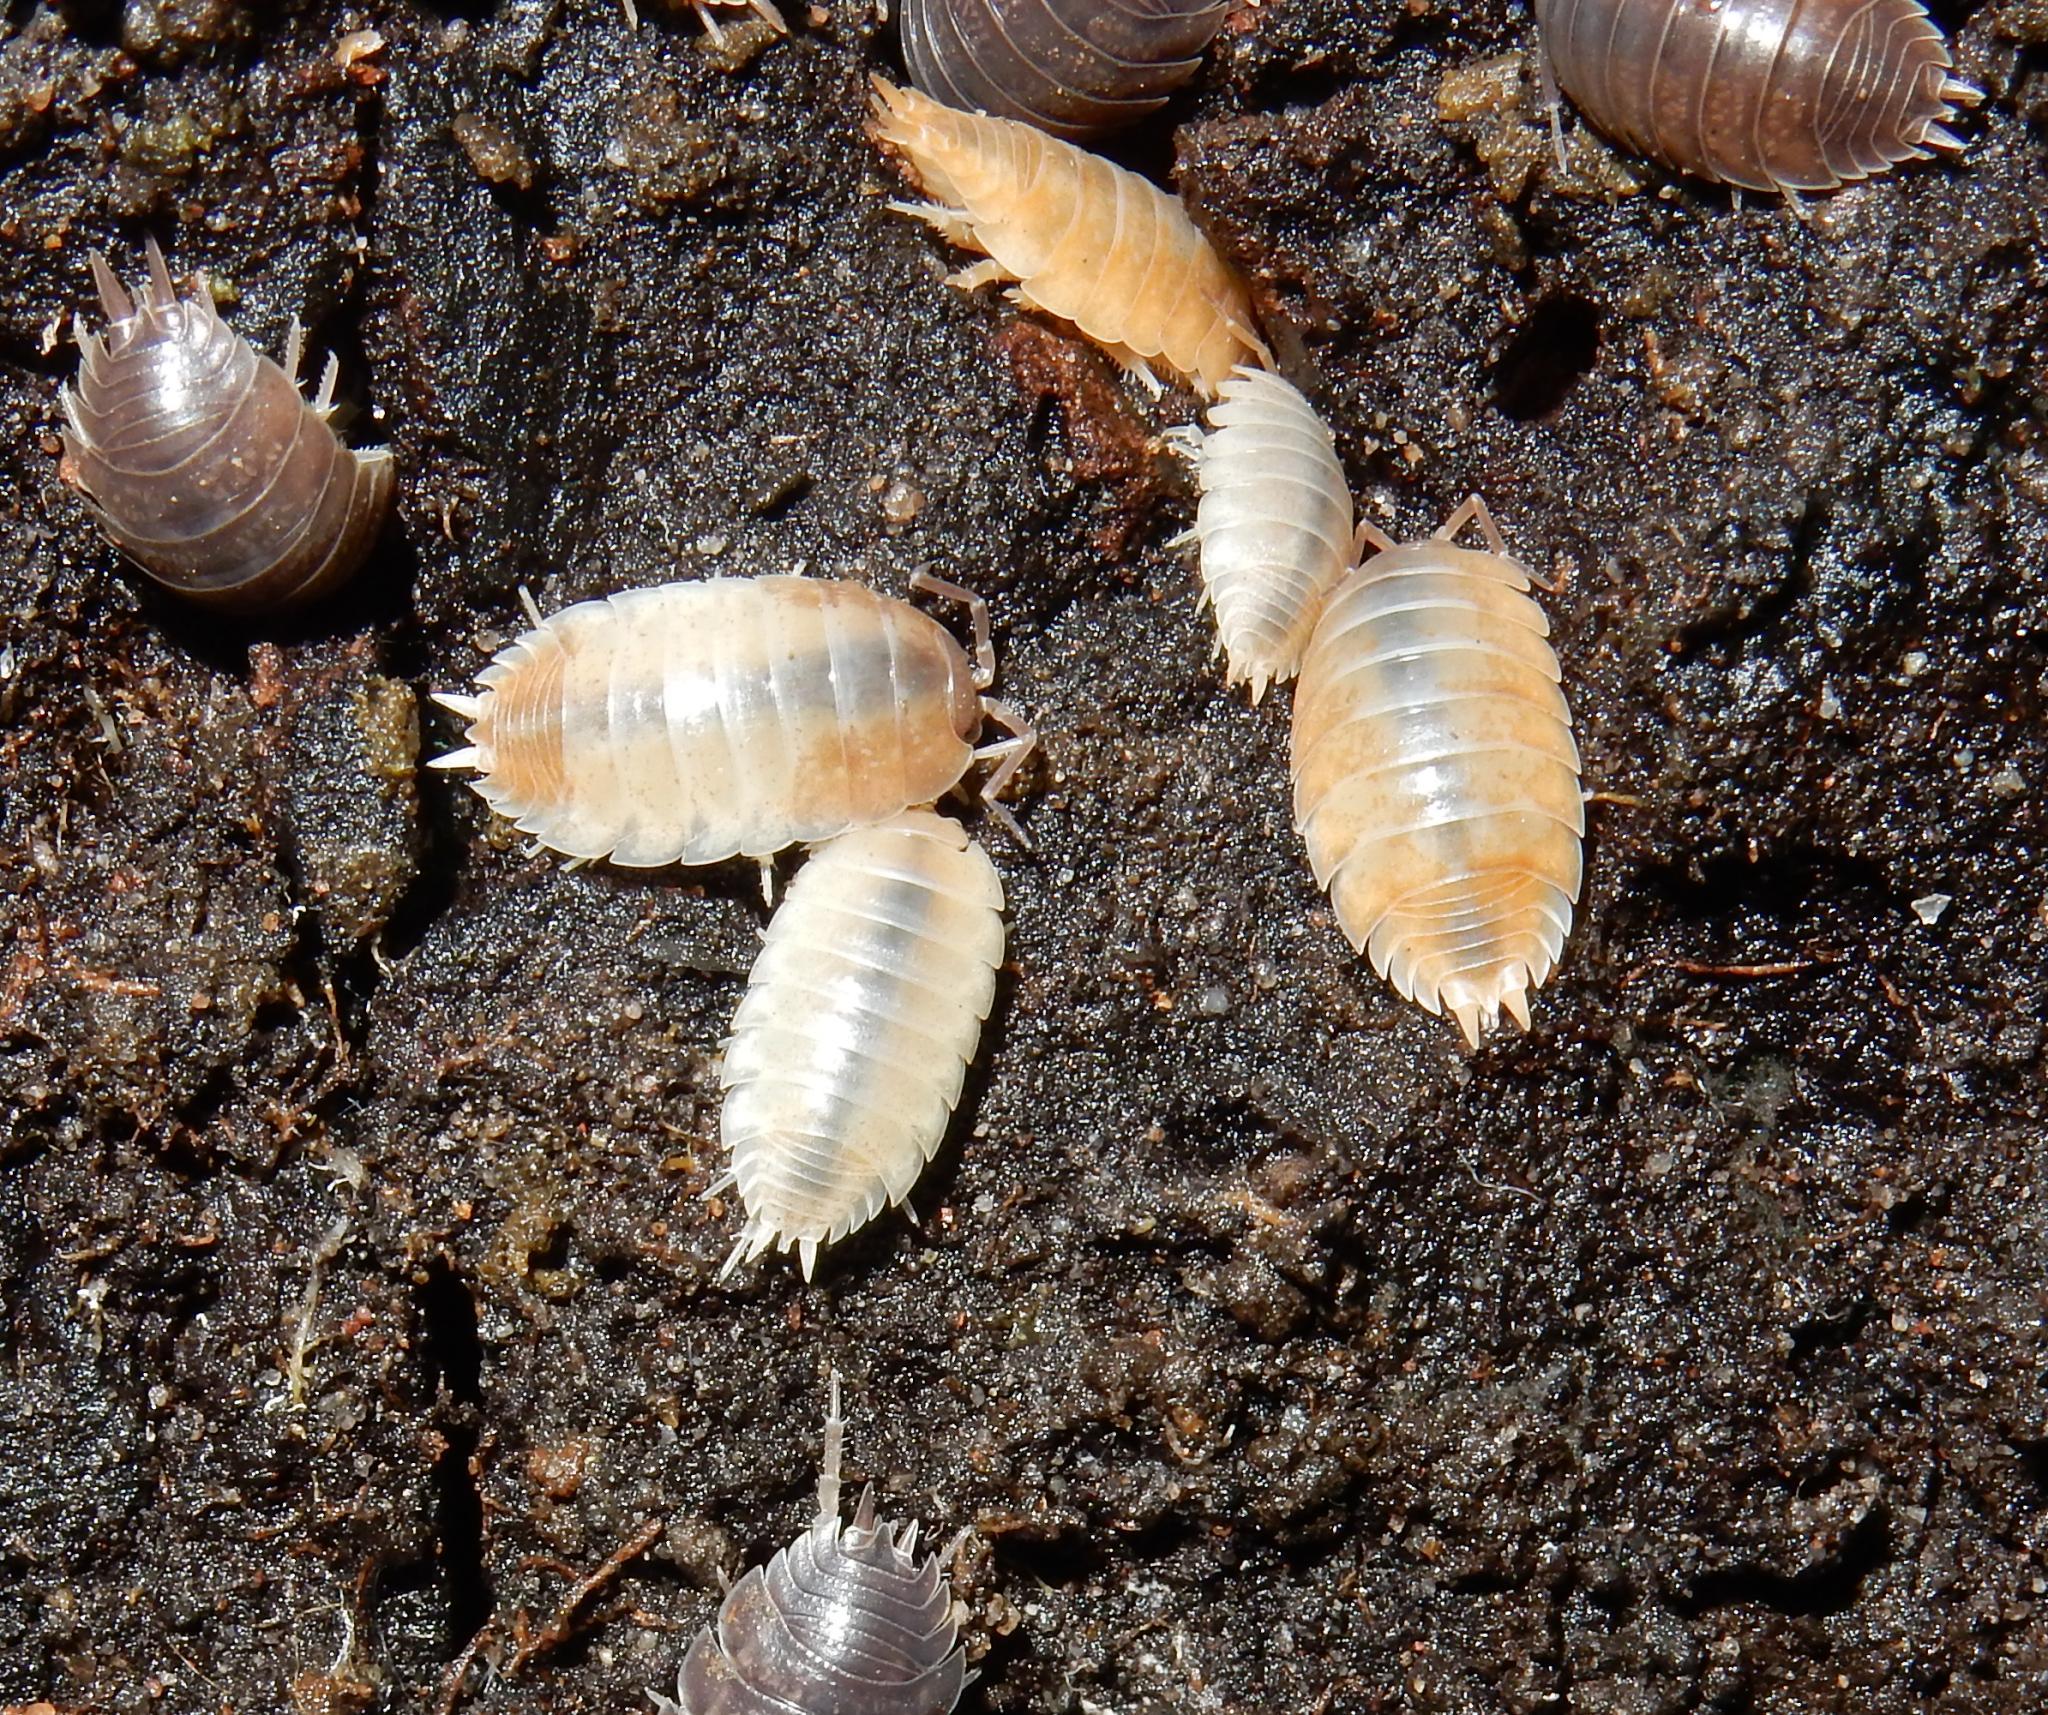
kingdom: Animalia
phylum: Arthropoda
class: Malacostraca
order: Isopoda
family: Porcellionidae
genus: Porcellio
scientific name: Porcellio laevis
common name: Swift woodlouse
